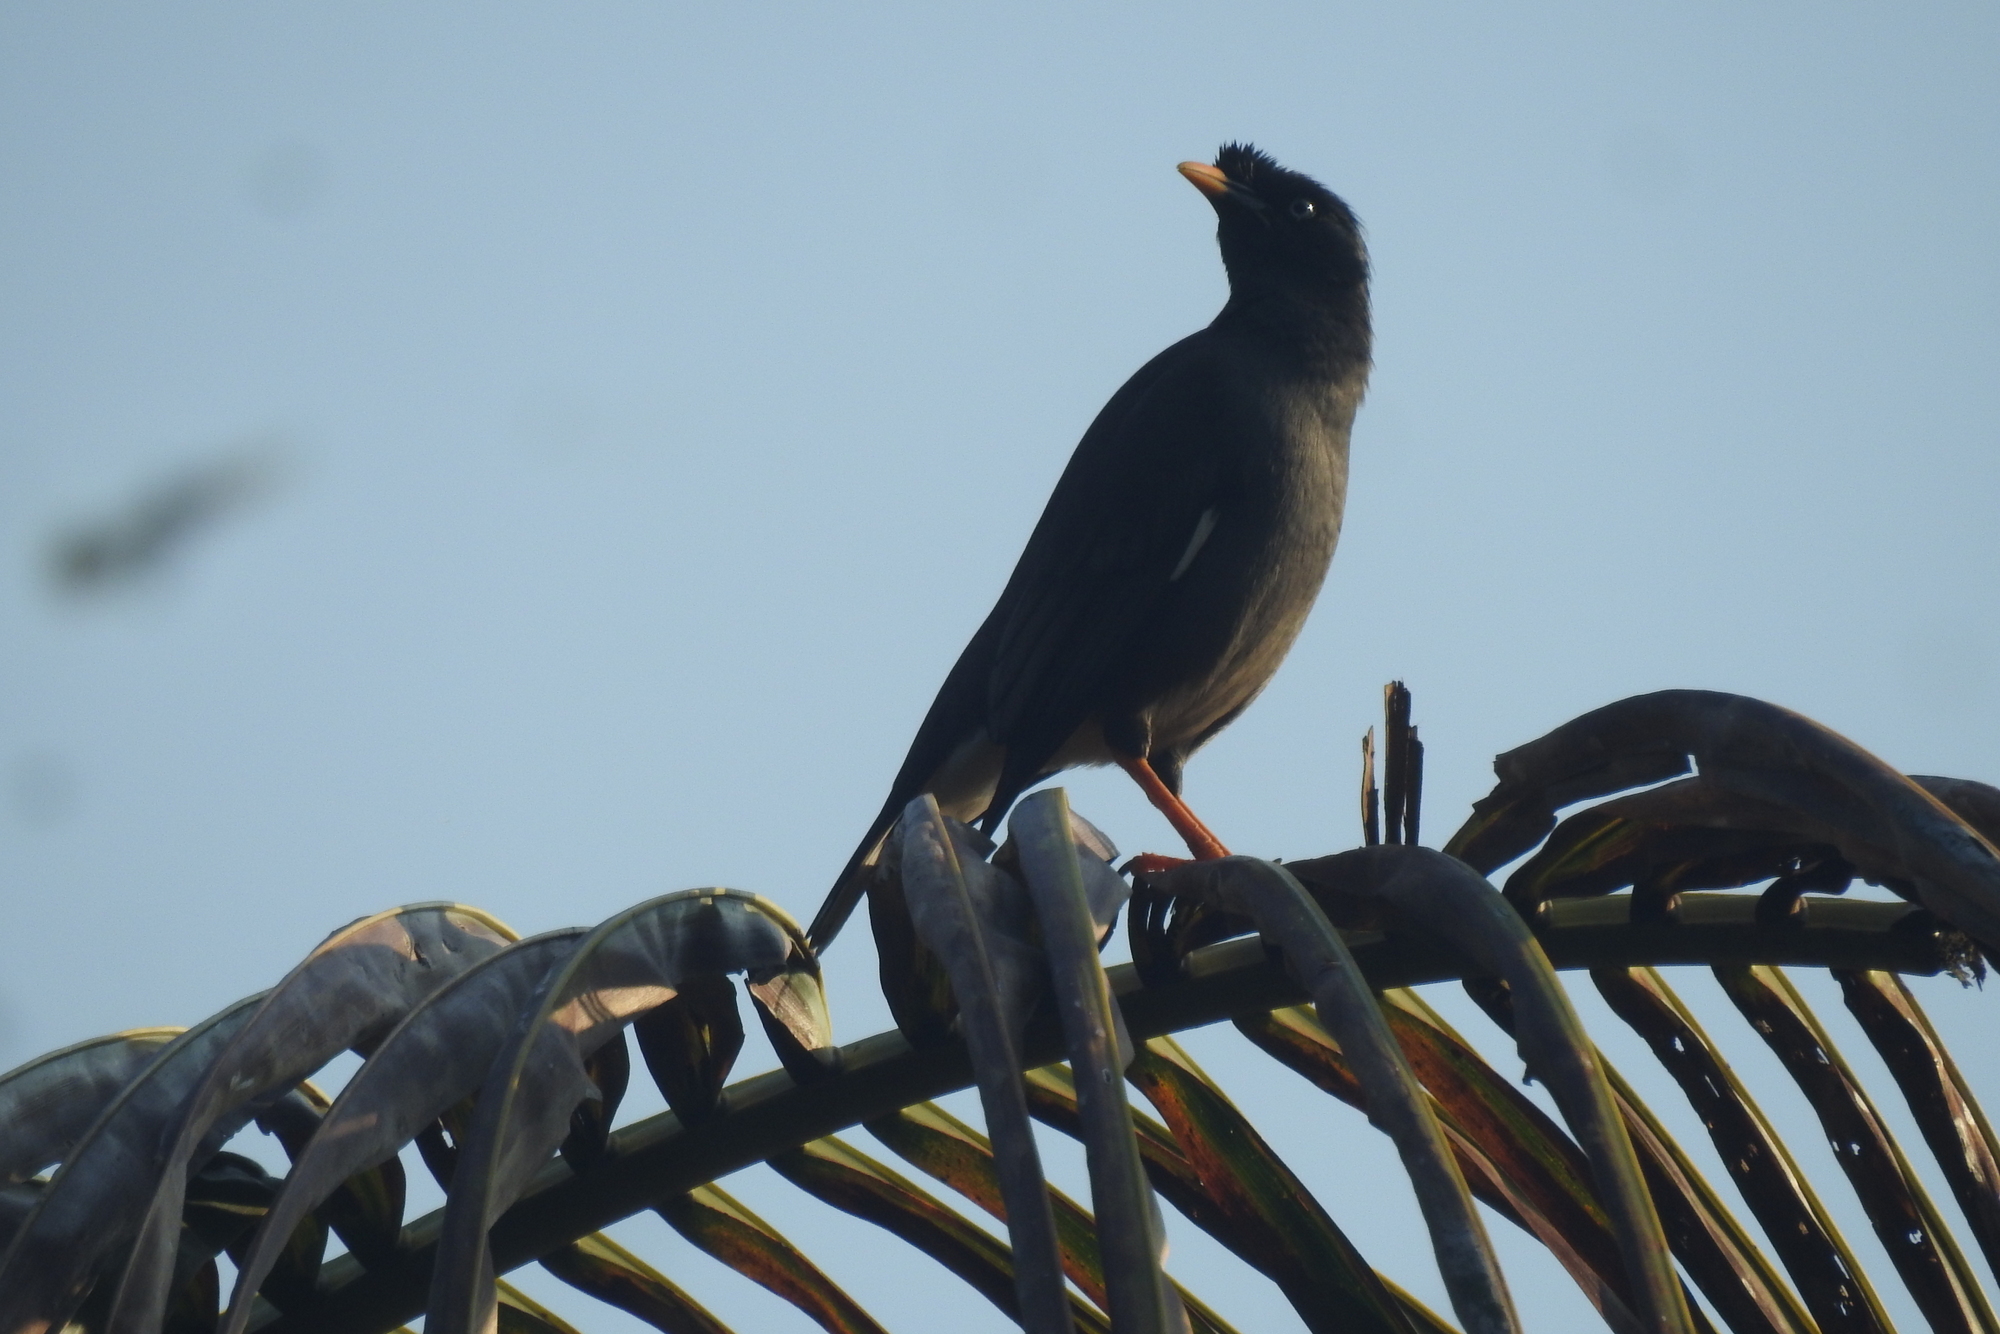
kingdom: Animalia
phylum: Chordata
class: Aves
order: Passeriformes
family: Sturnidae
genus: Acridotheres
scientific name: Acridotheres fuscus
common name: Jungle myna
